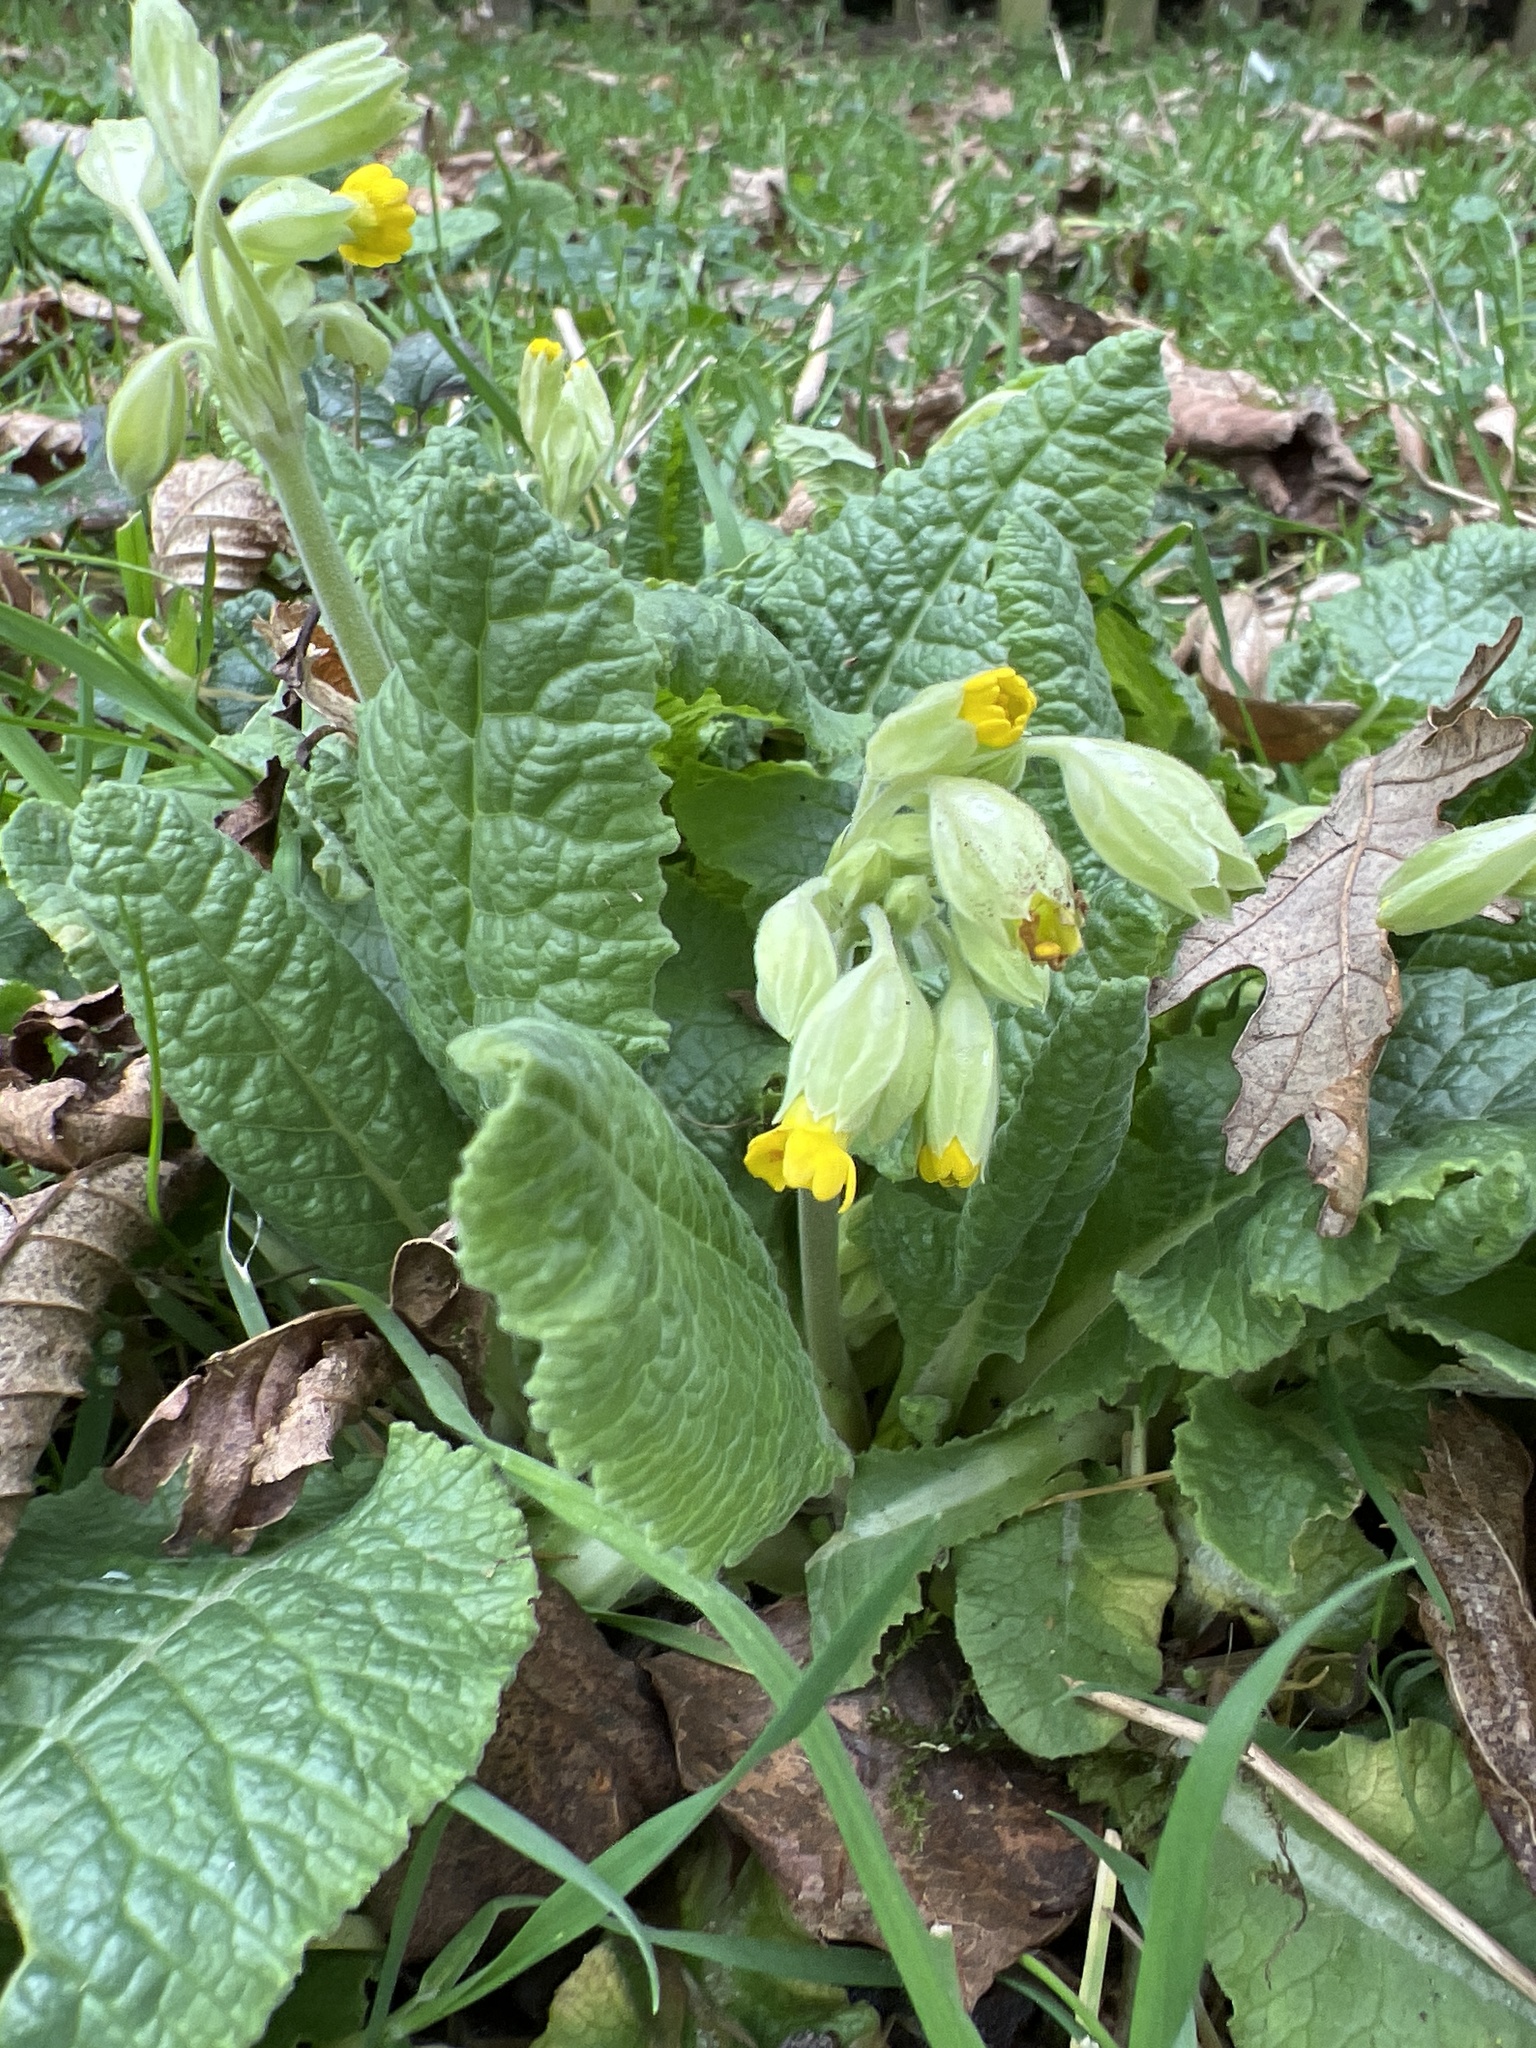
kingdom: Plantae
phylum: Tracheophyta
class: Magnoliopsida
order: Ericales
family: Primulaceae
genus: Primula
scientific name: Primula veris
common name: Cowslip
